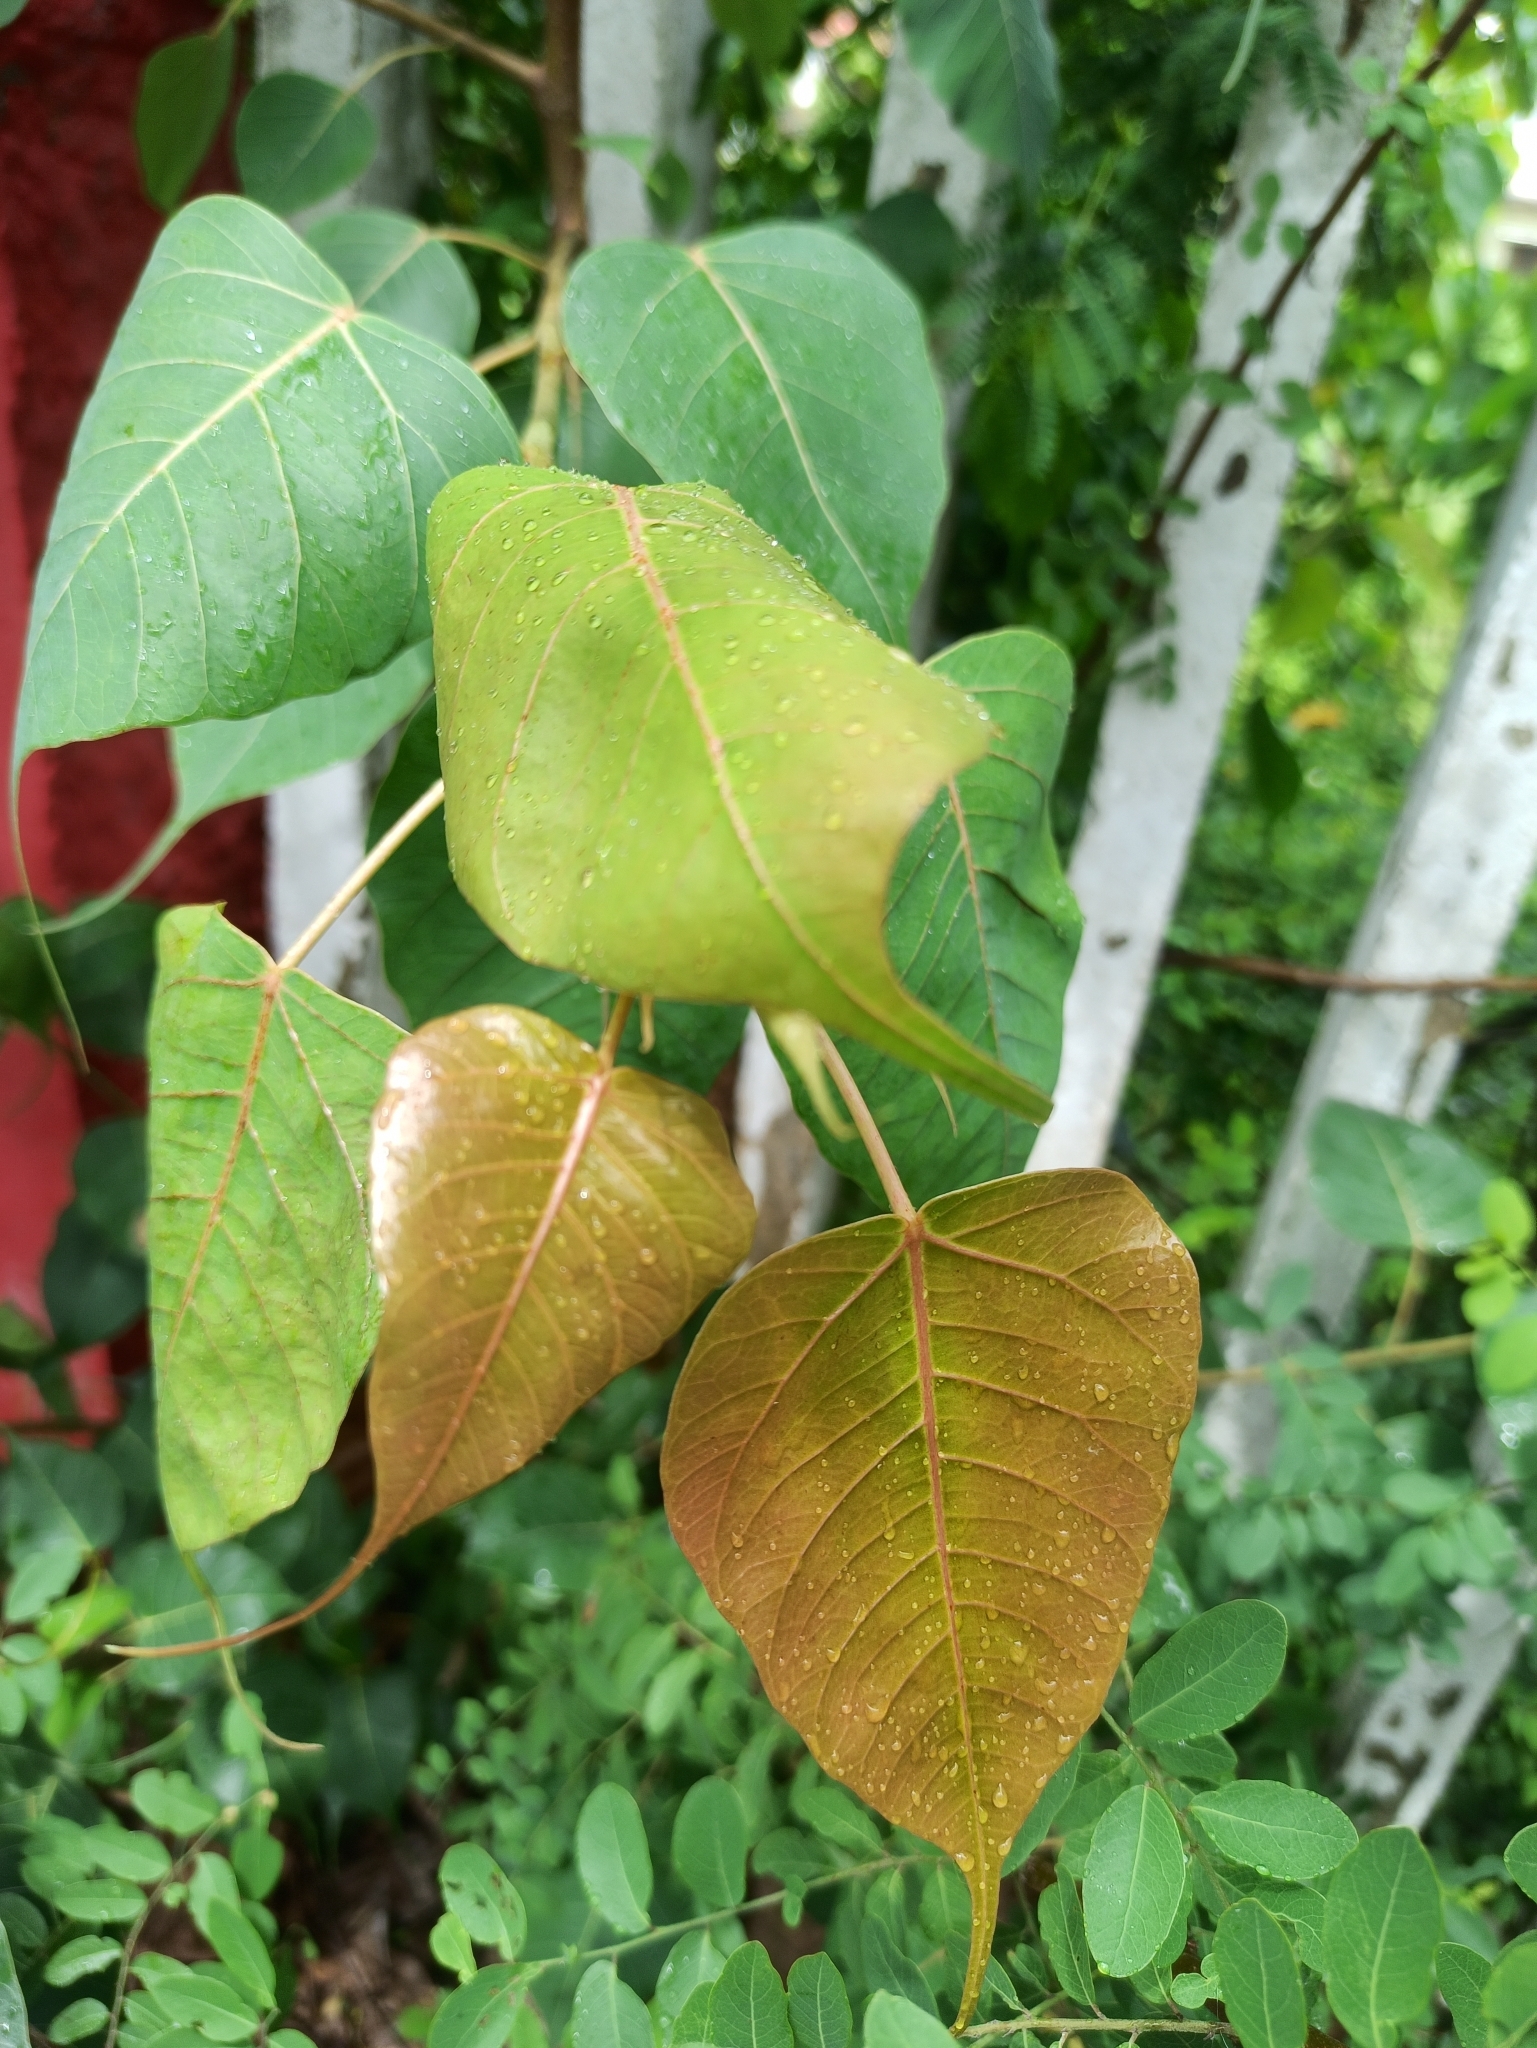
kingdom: Plantae
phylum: Tracheophyta
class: Magnoliopsida
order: Rosales
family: Moraceae
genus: Ficus
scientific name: Ficus religiosa
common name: Bodhi tree
